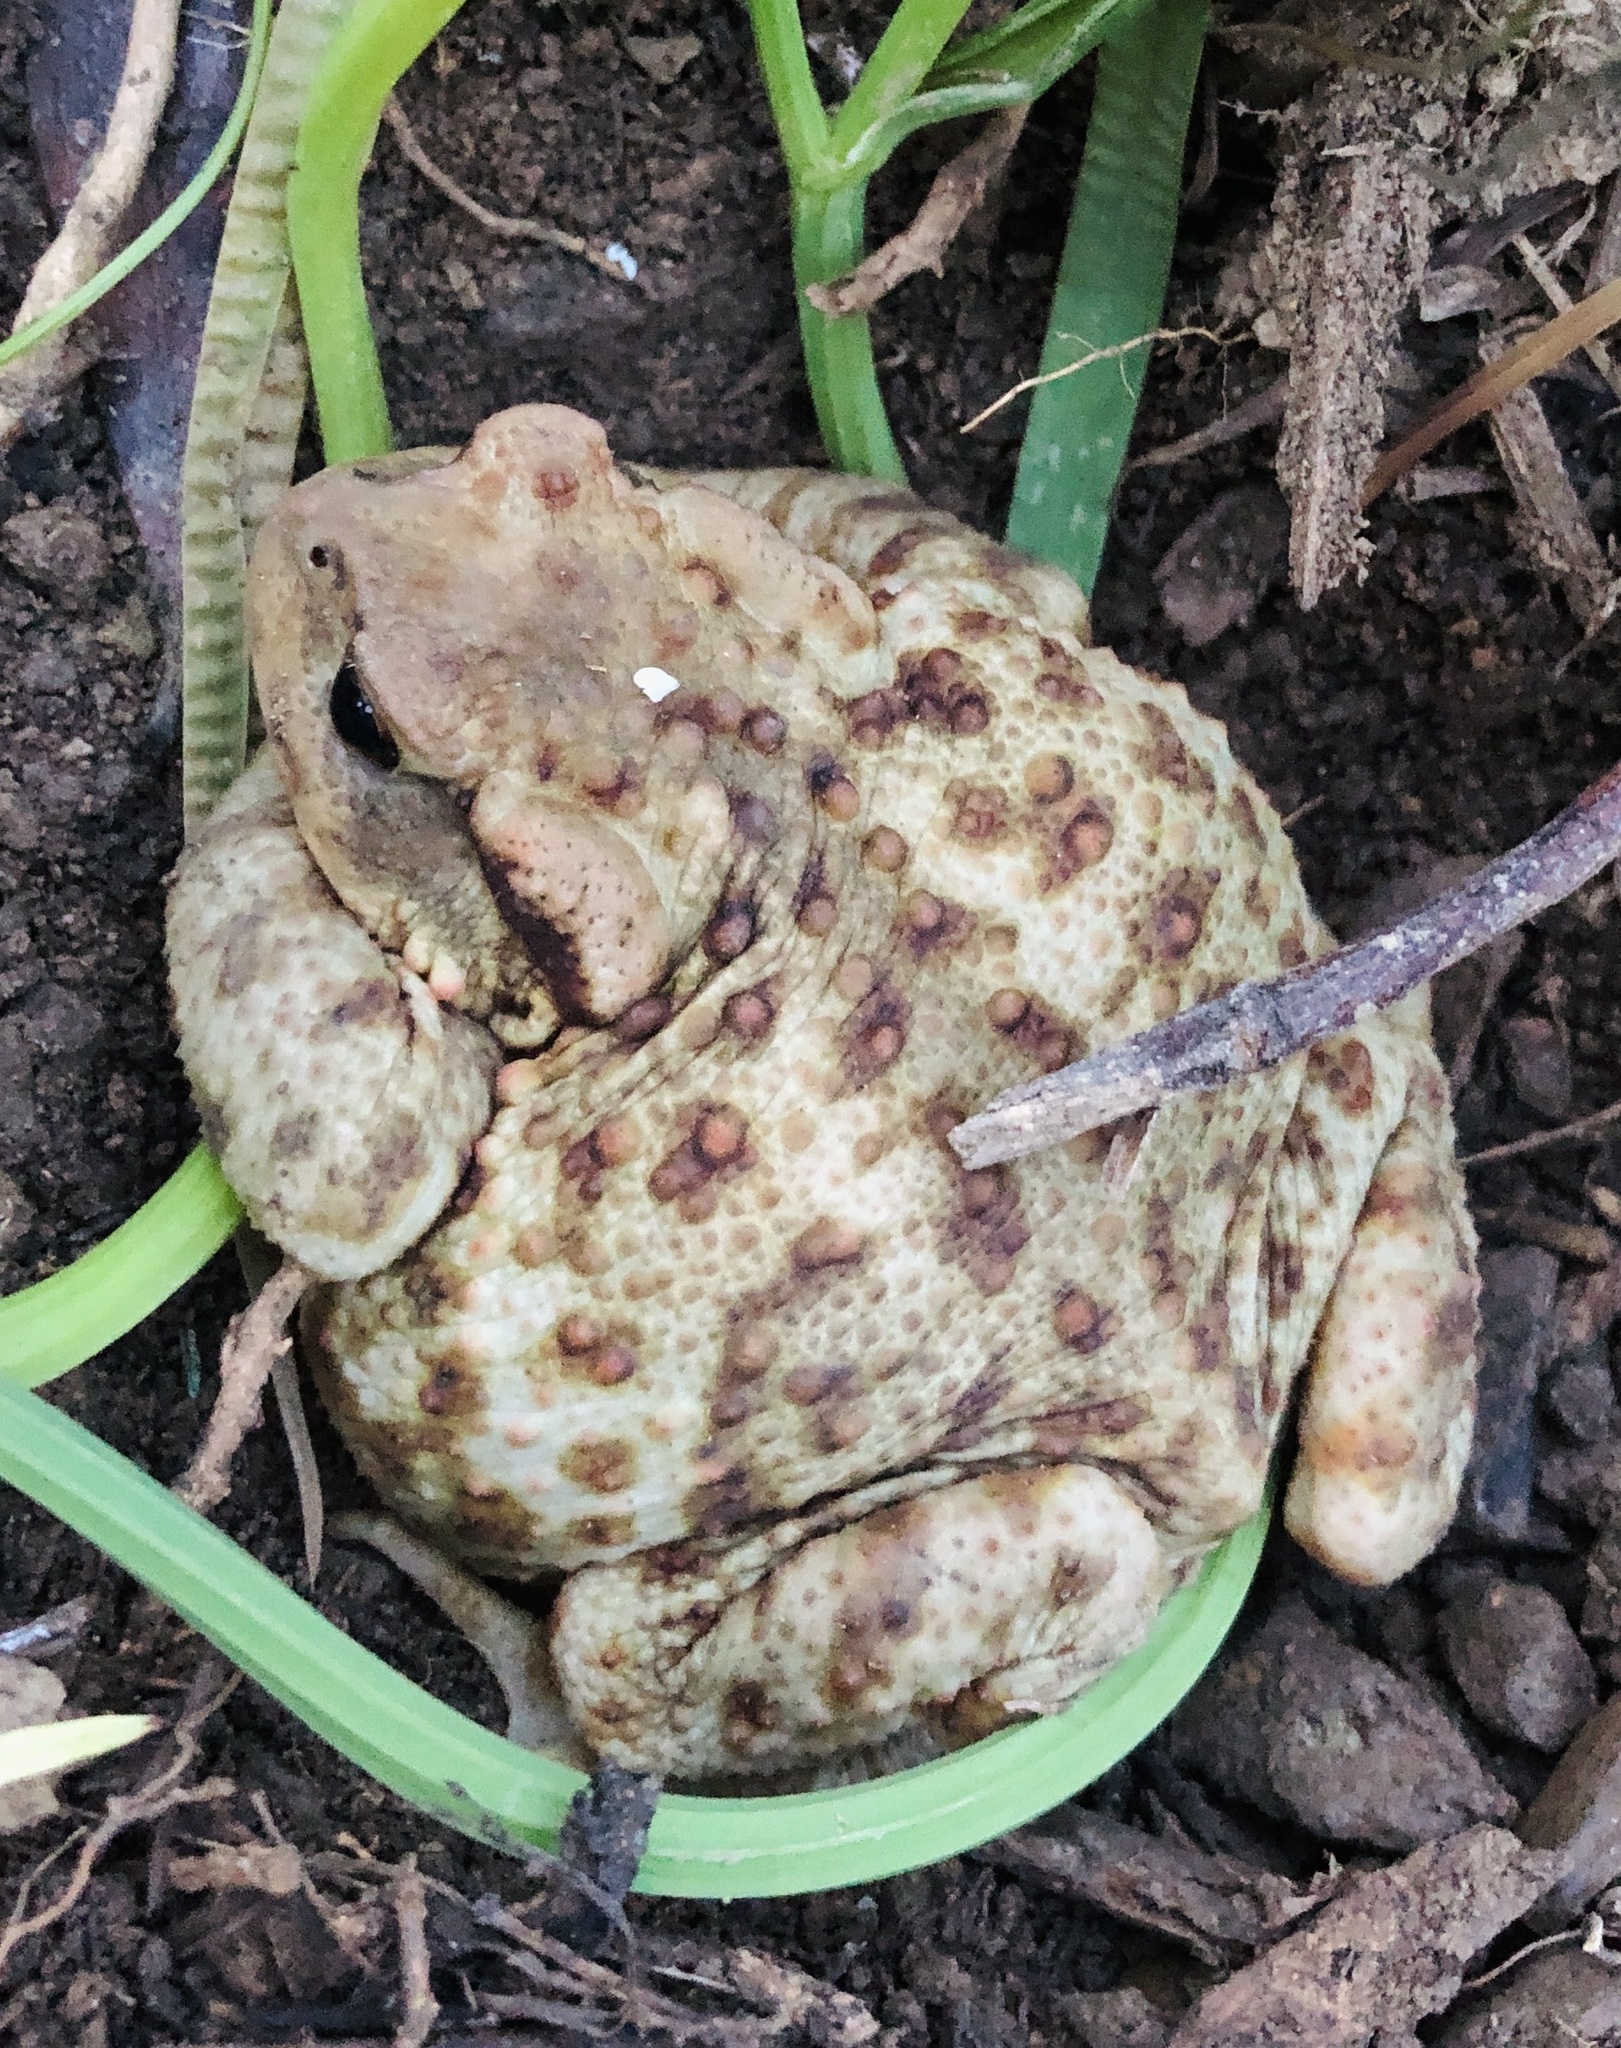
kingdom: Animalia
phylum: Chordata
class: Amphibia
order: Anura
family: Bufonidae
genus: Bufo
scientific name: Bufo bufo
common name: Common toad
